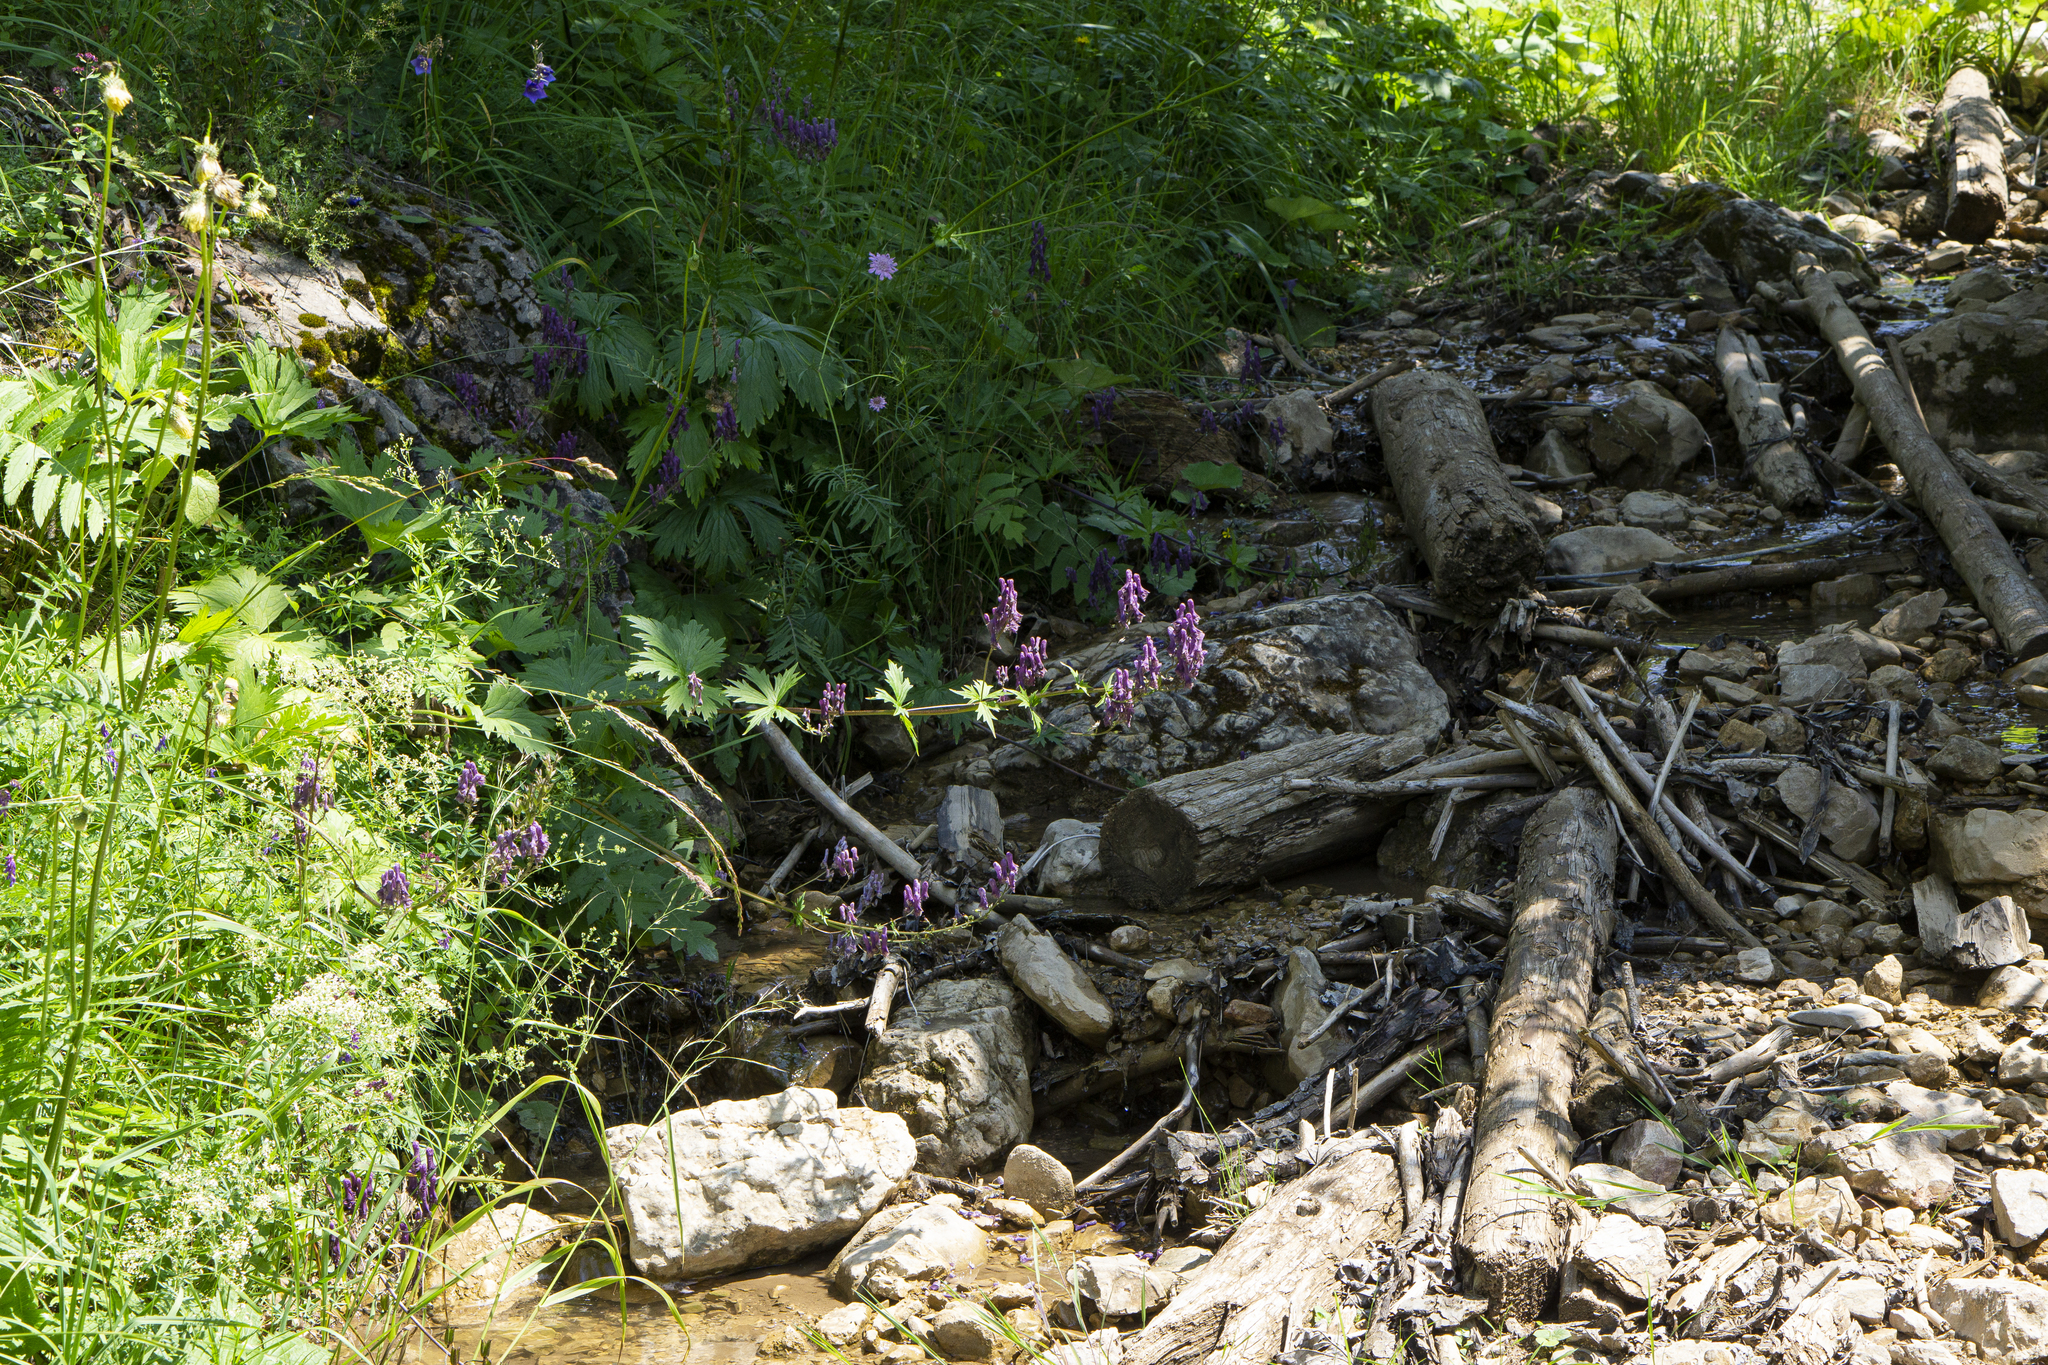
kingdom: Plantae
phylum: Tracheophyta
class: Magnoliopsida
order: Ranunculales
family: Ranunculaceae
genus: Aconitum
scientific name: Aconitum lycoctonum
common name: Wolf's-bane
